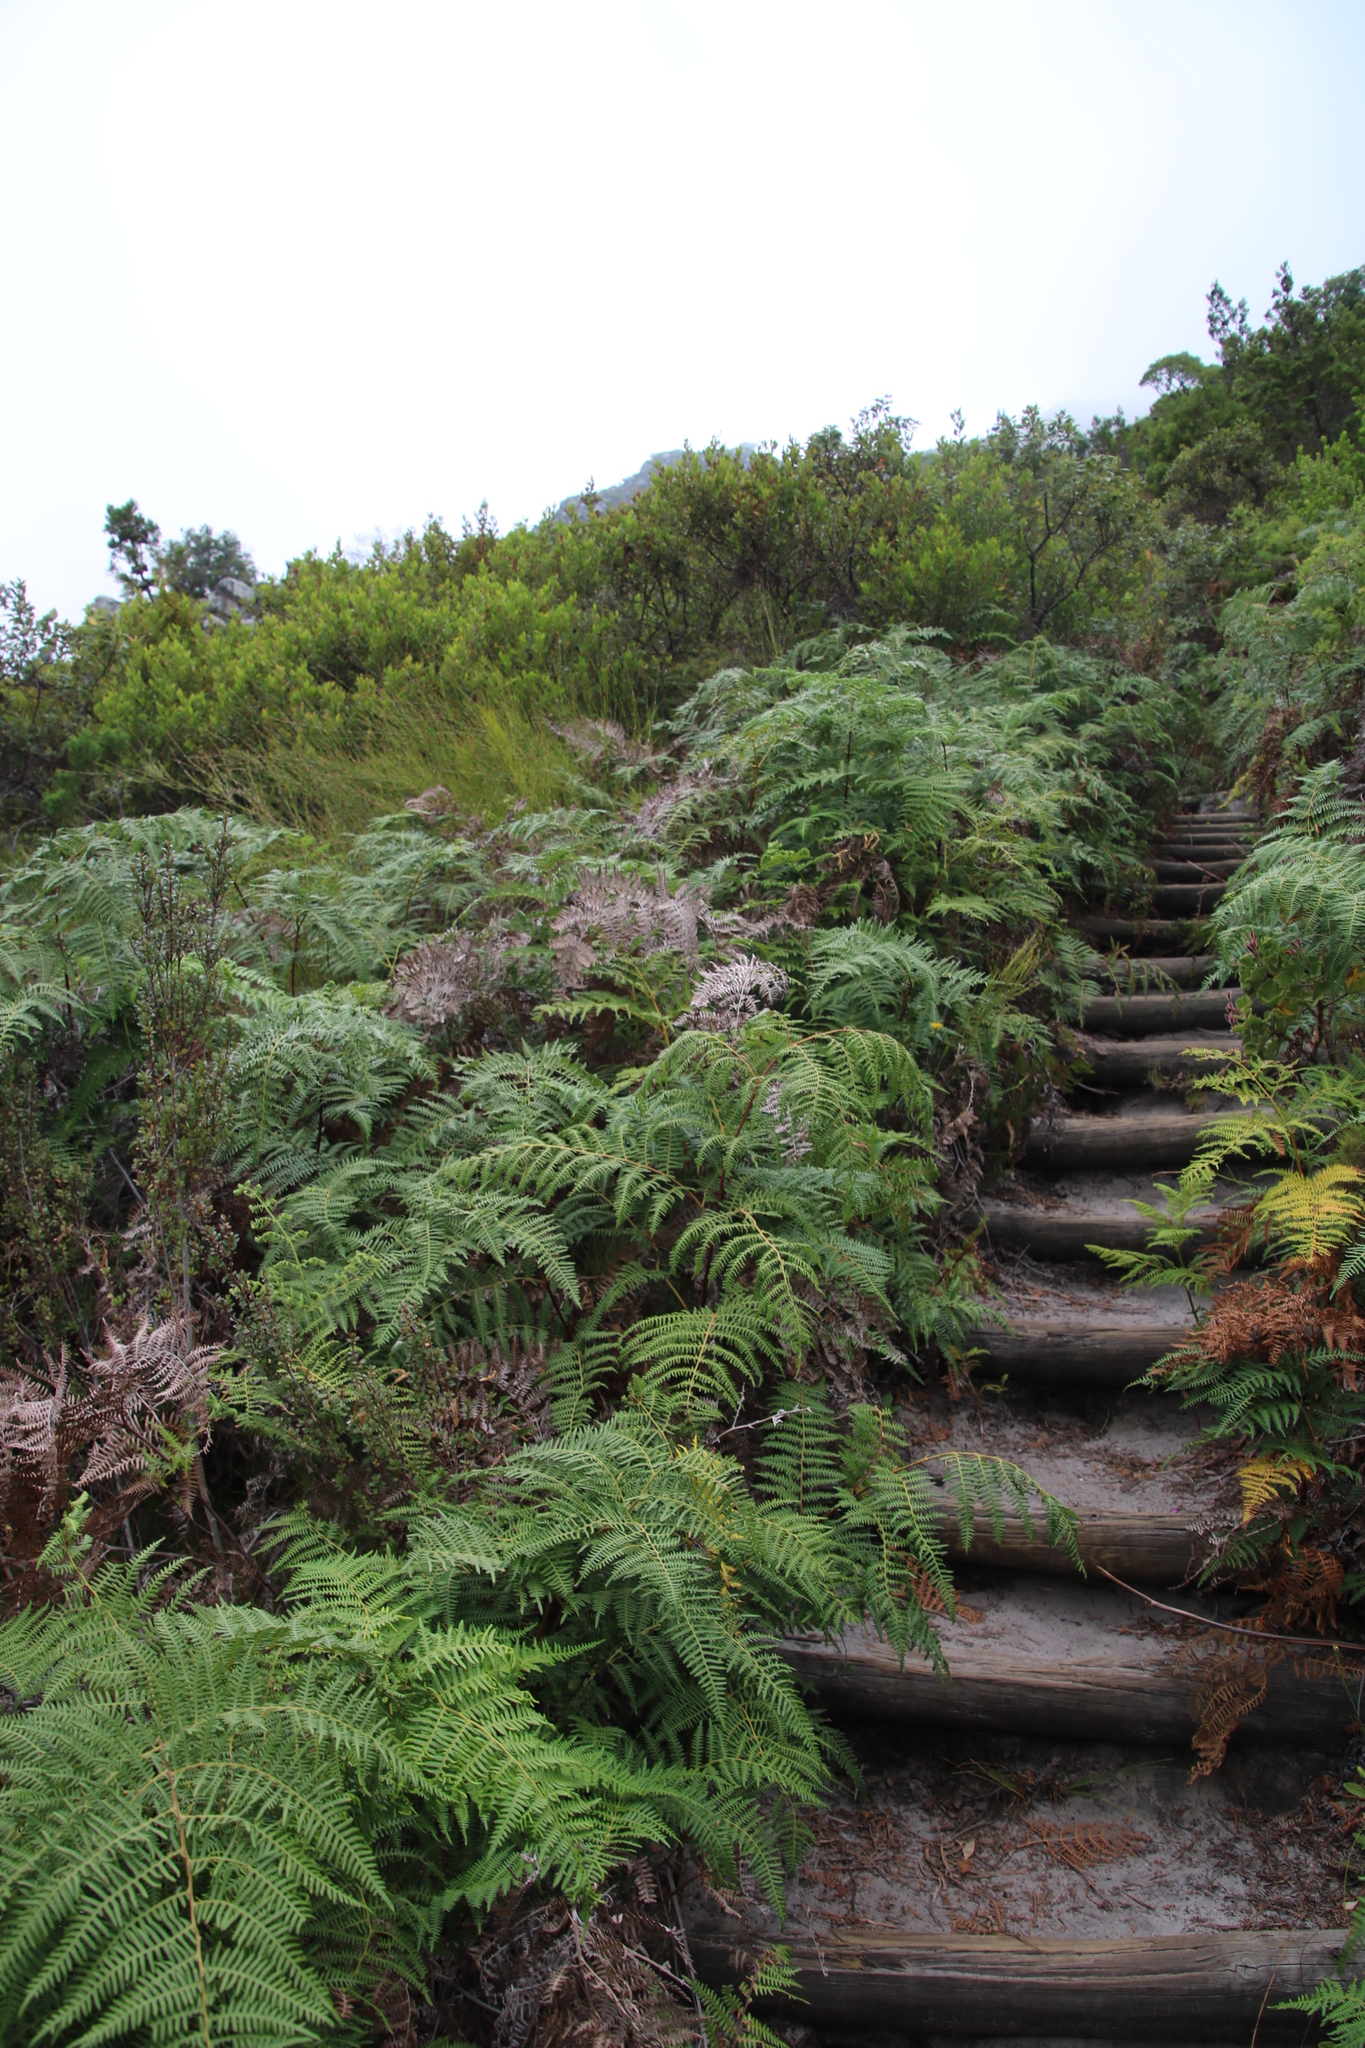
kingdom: Plantae
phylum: Tracheophyta
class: Polypodiopsida
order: Polypodiales
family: Dennstaedtiaceae
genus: Pteridium
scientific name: Pteridium aquilinum
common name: Bracken
